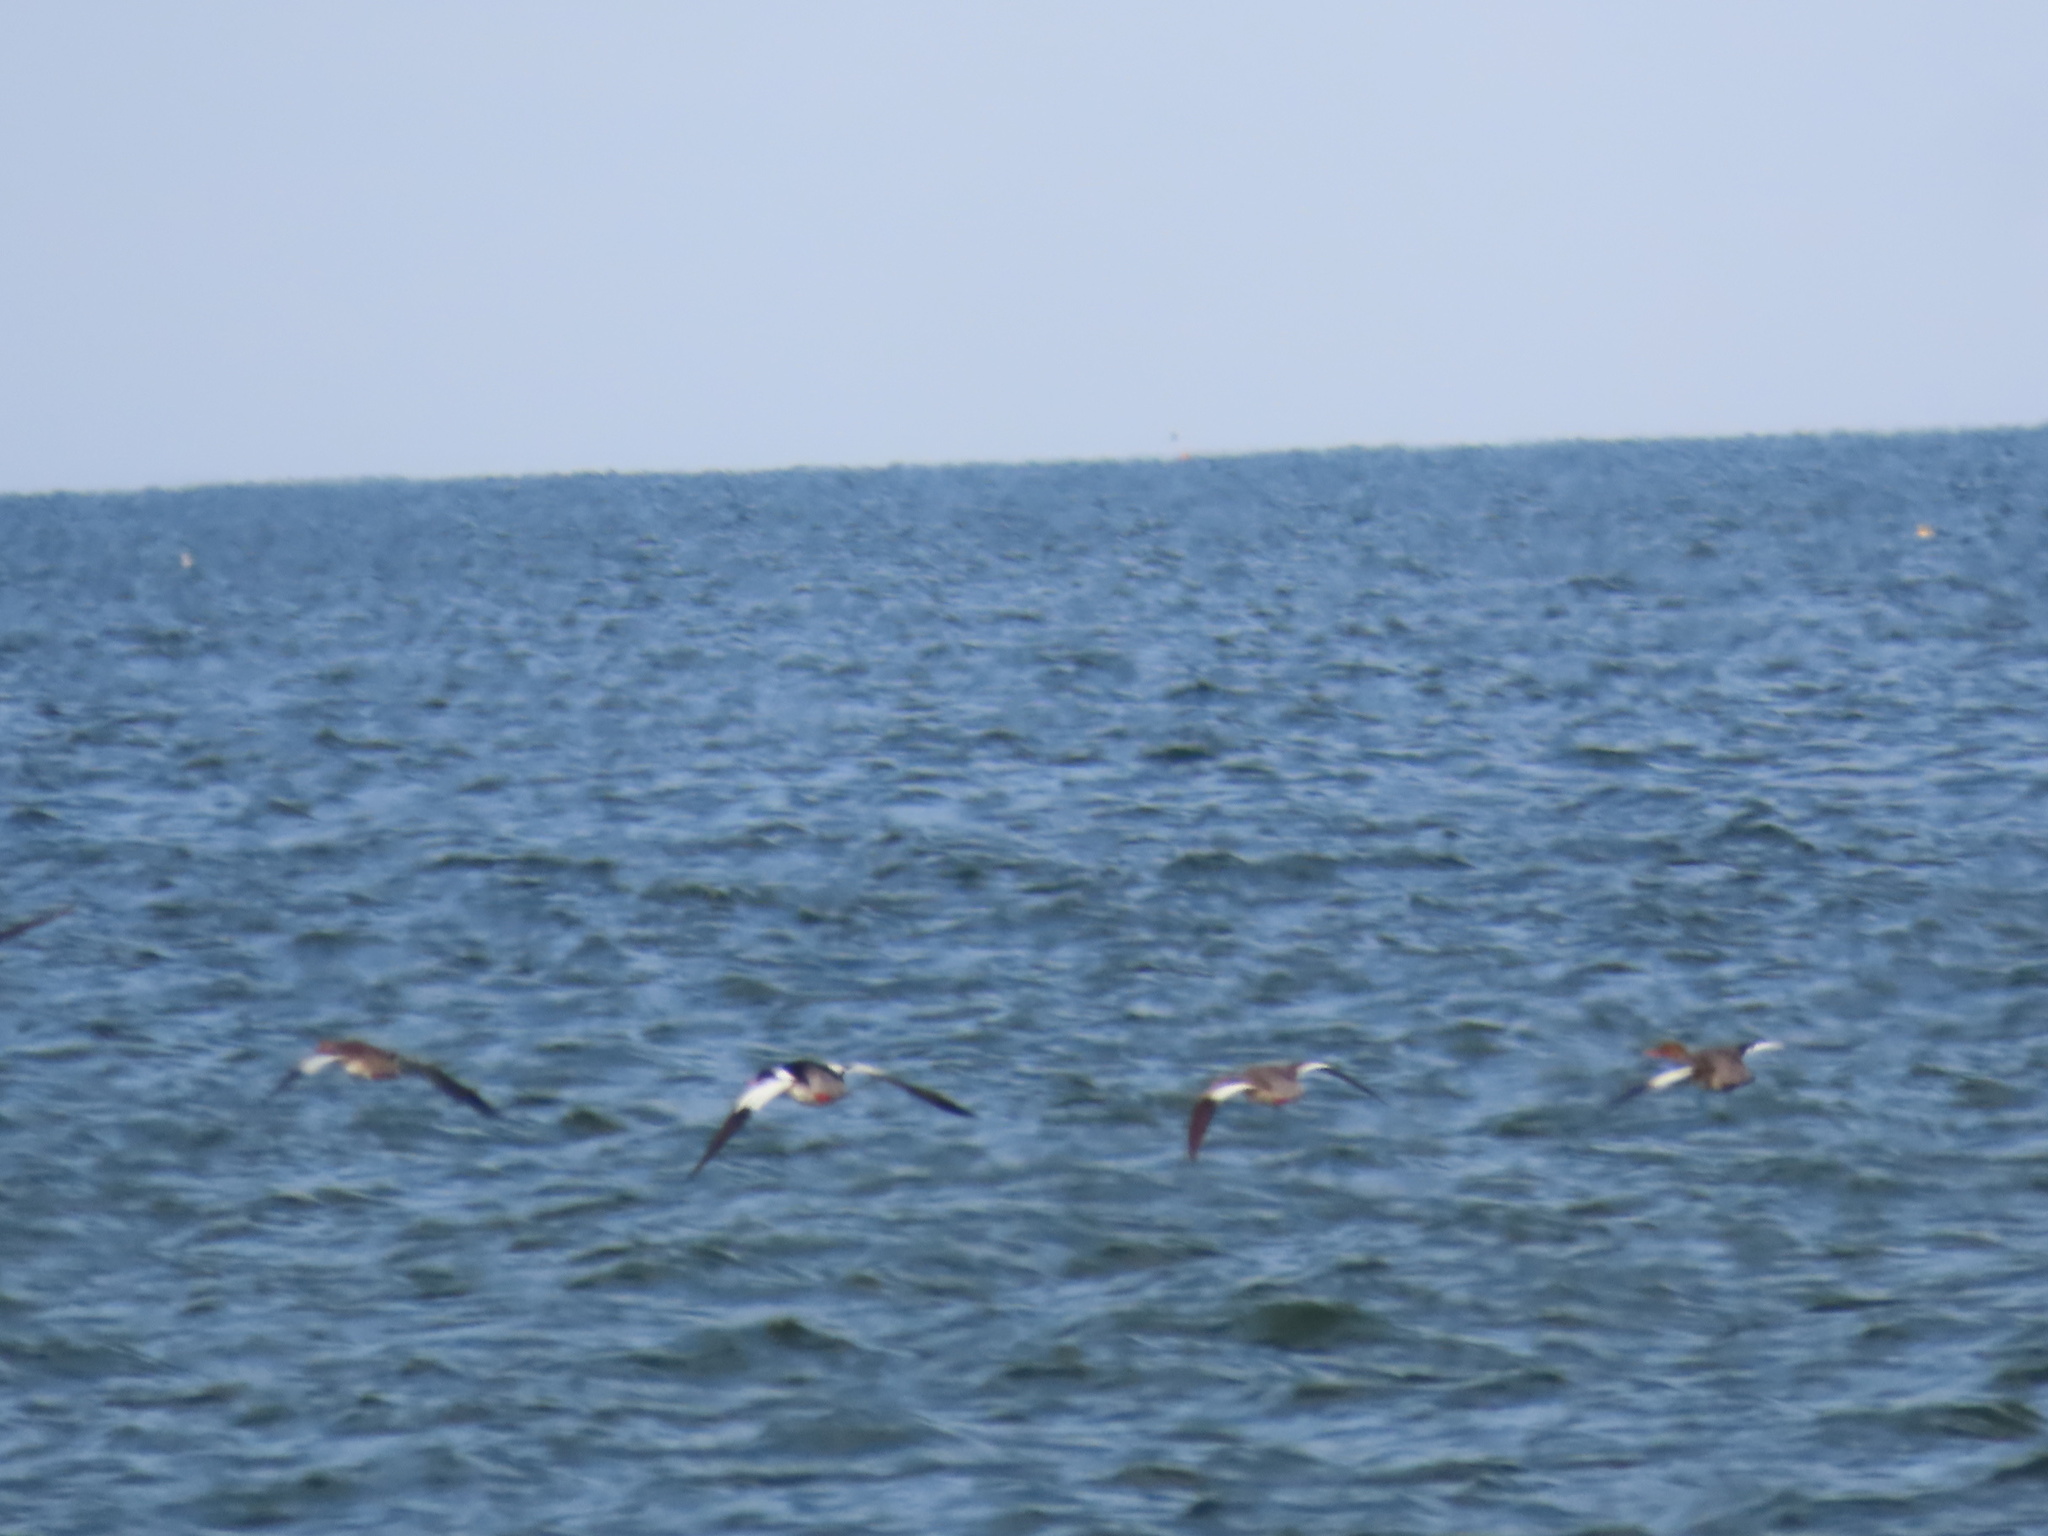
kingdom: Animalia
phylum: Chordata
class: Aves
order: Anseriformes
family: Anatidae
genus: Mergus
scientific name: Mergus serrator
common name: Red-breasted merganser
